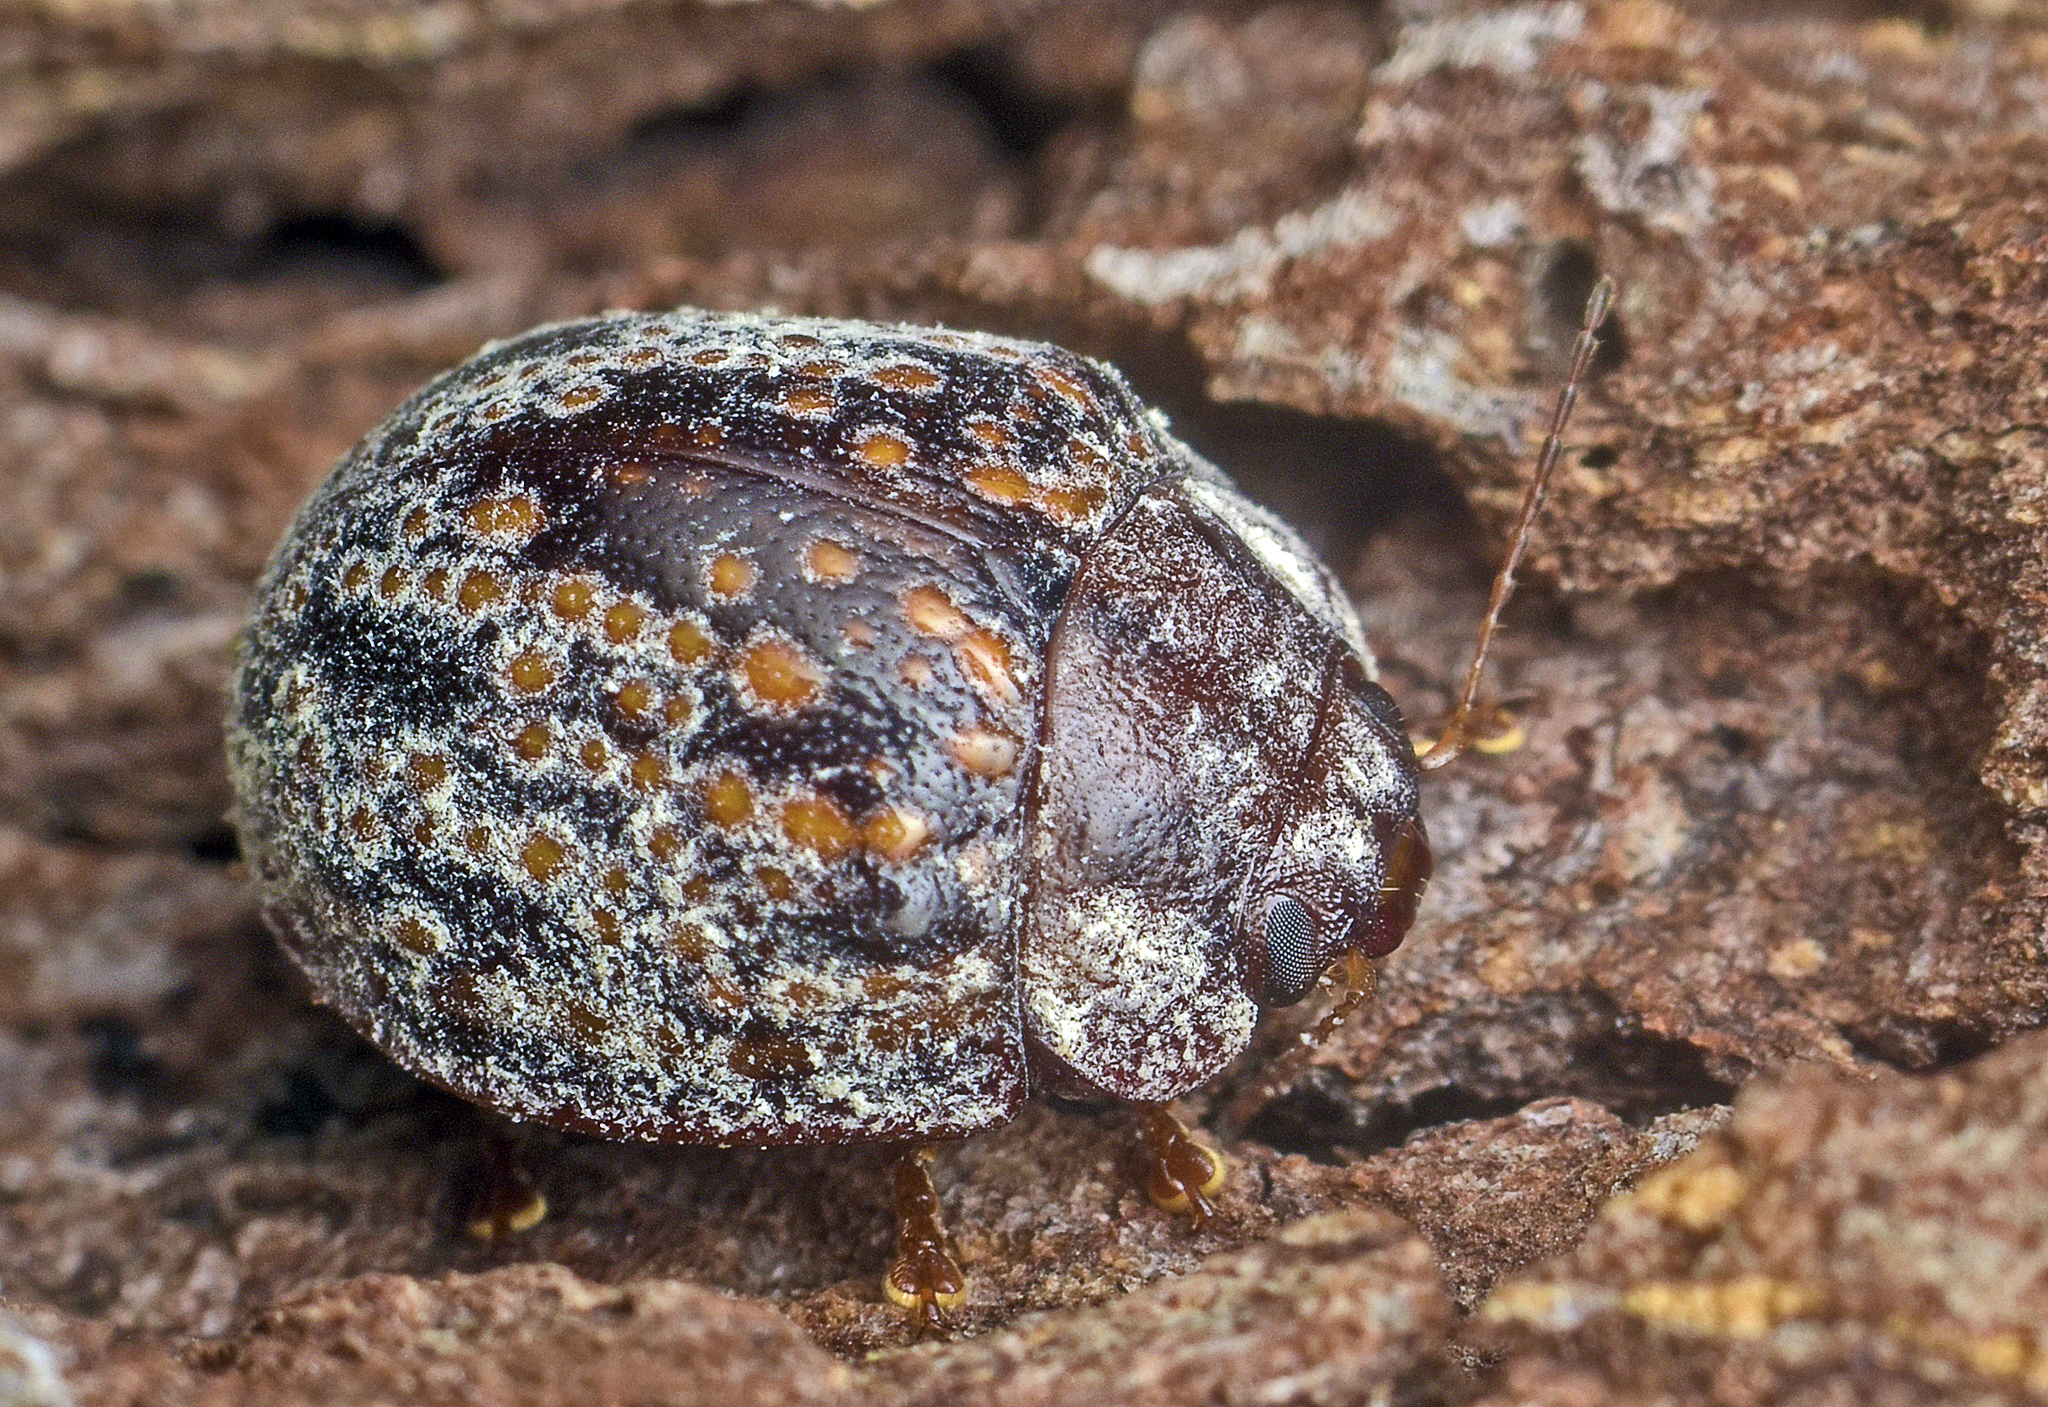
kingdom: Animalia
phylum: Arthropoda
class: Insecta
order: Coleoptera
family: Chrysomelidae
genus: Trachymela
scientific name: Trachymela
